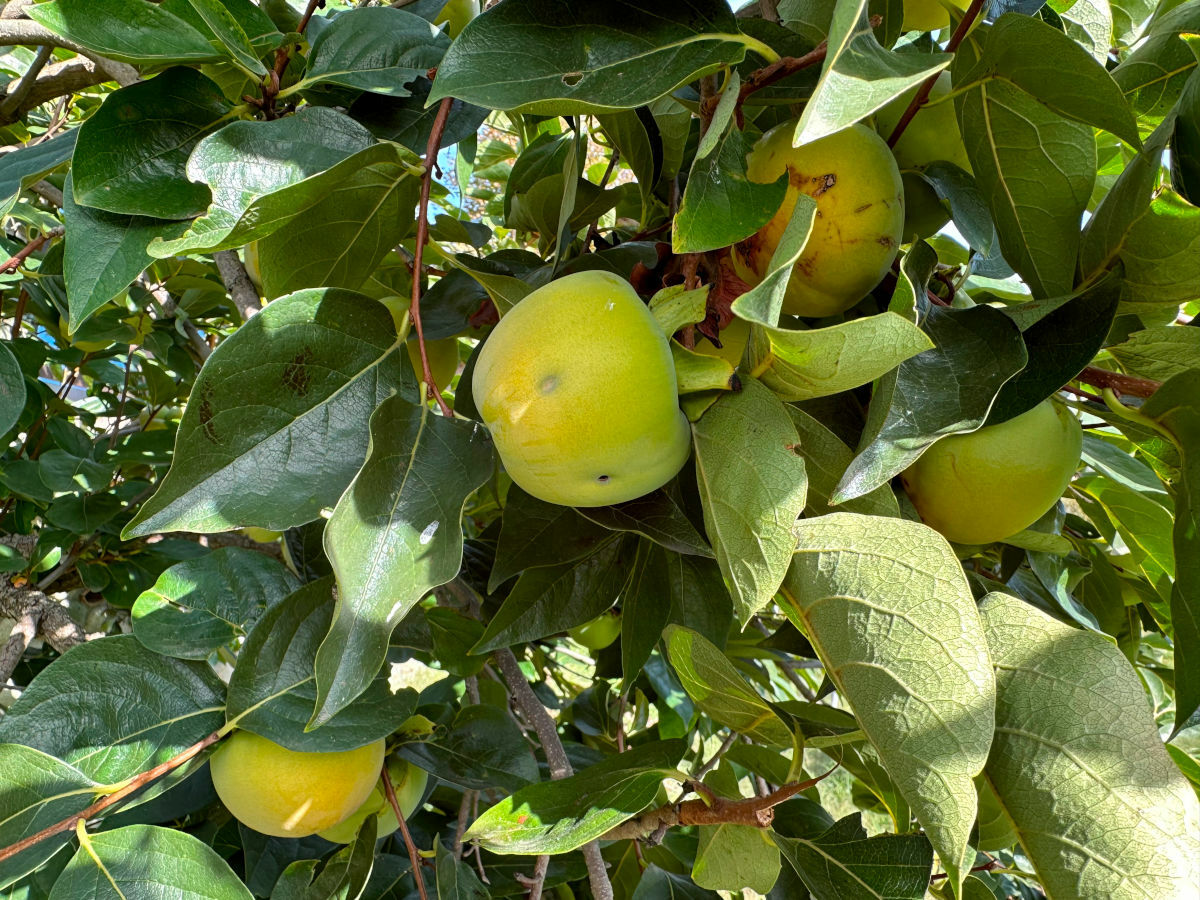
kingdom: Plantae
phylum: Tracheophyta
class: Magnoliopsida
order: Ericales
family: Ebenaceae
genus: Diospyros
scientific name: Diospyros kaki
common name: Persimmon
